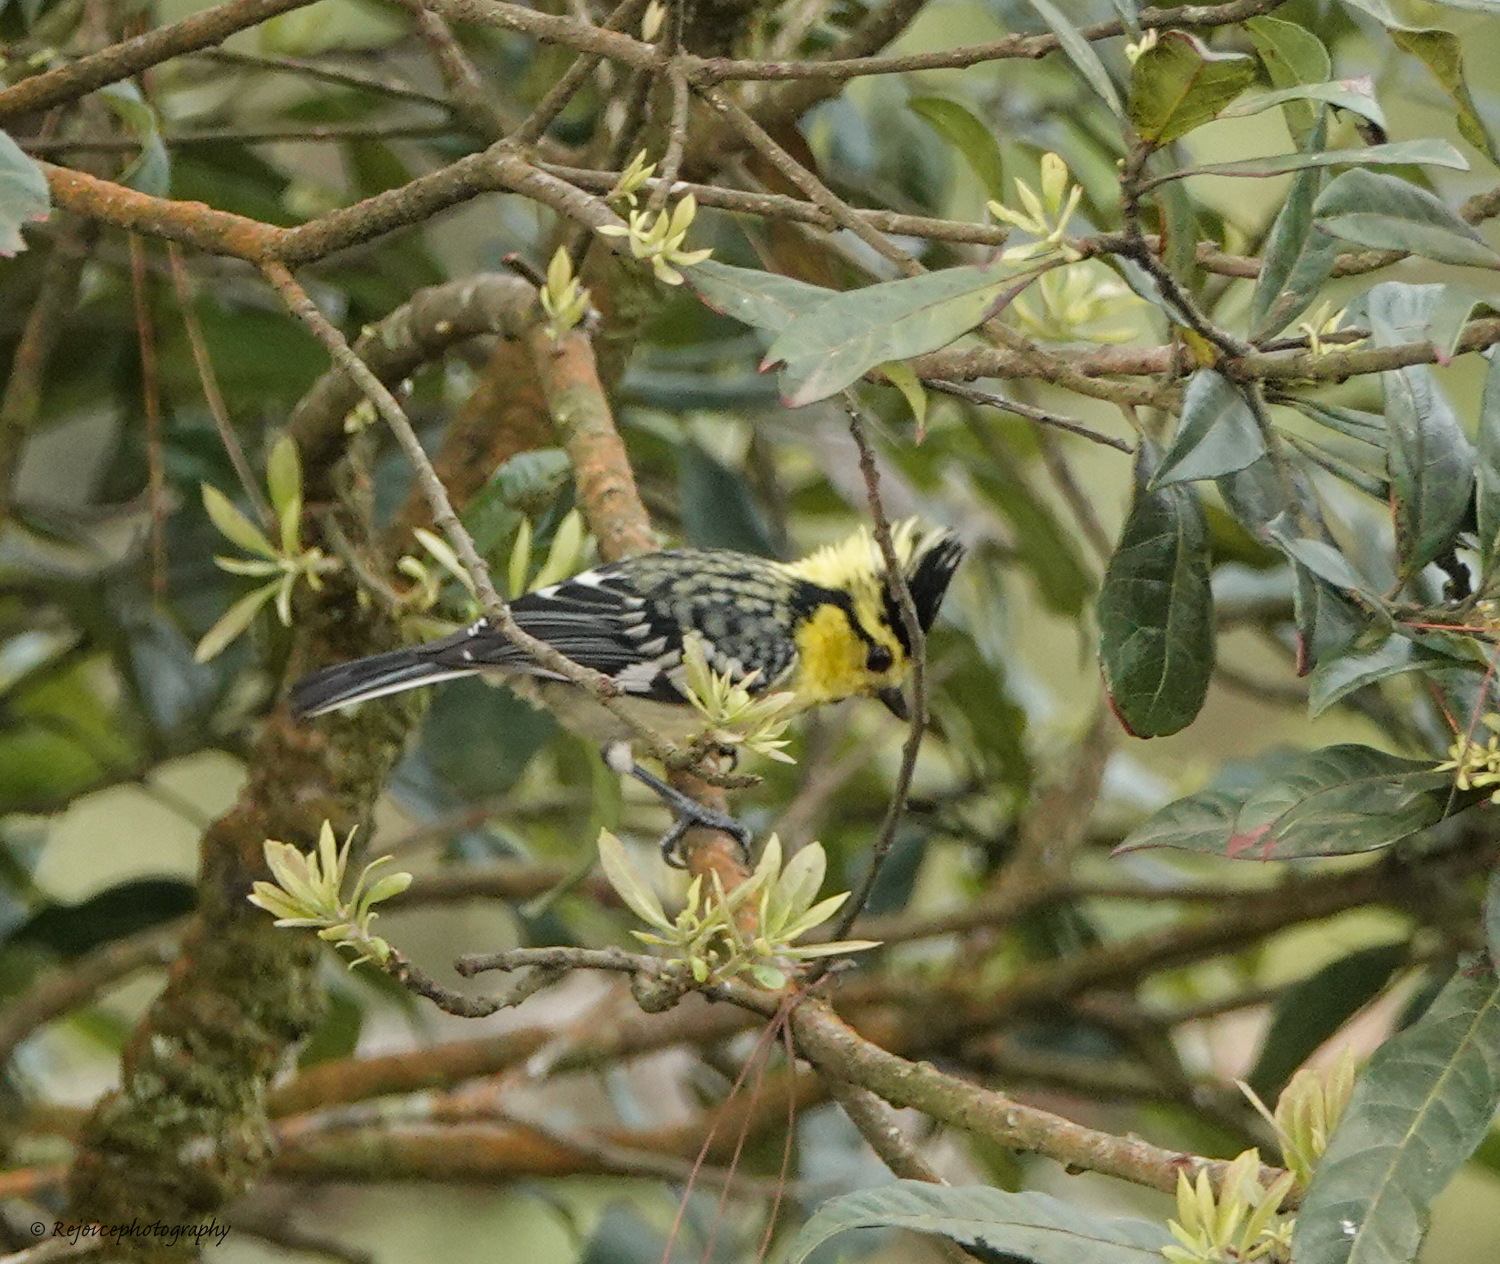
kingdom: Animalia
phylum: Chordata
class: Aves
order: Passeriformes
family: Paridae
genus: Parus
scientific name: Parus spilonotus
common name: Yellow-cheeked tit
